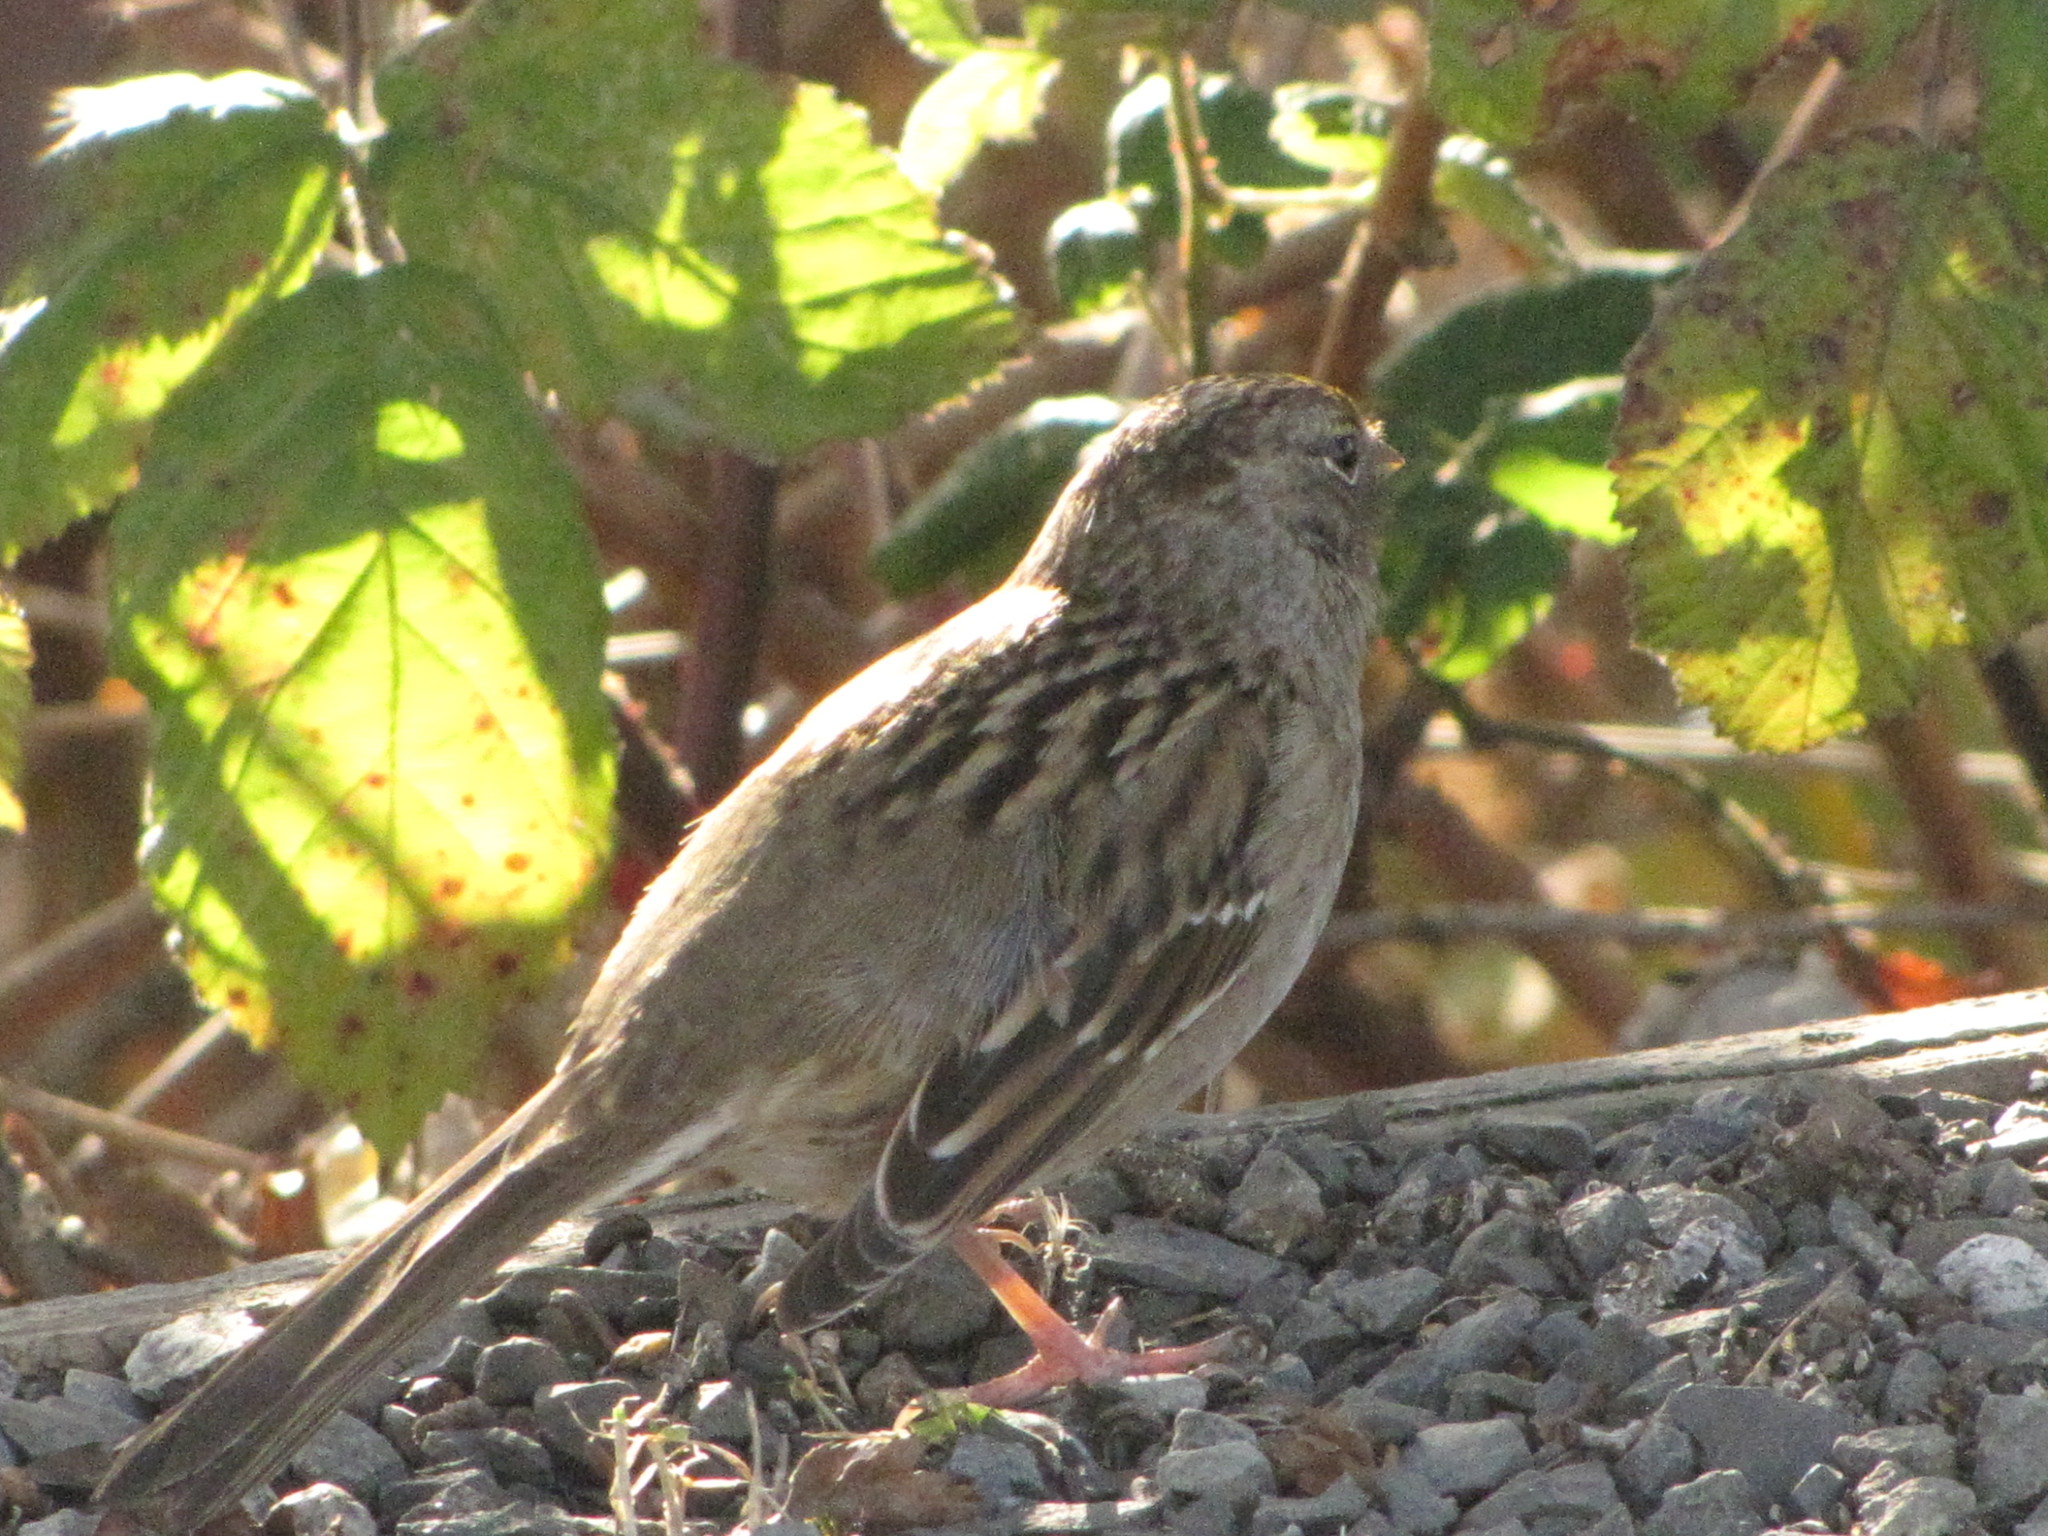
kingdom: Animalia
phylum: Chordata
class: Aves
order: Passeriformes
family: Passerellidae
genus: Zonotrichia
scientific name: Zonotrichia atricapilla
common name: Golden-crowned sparrow
